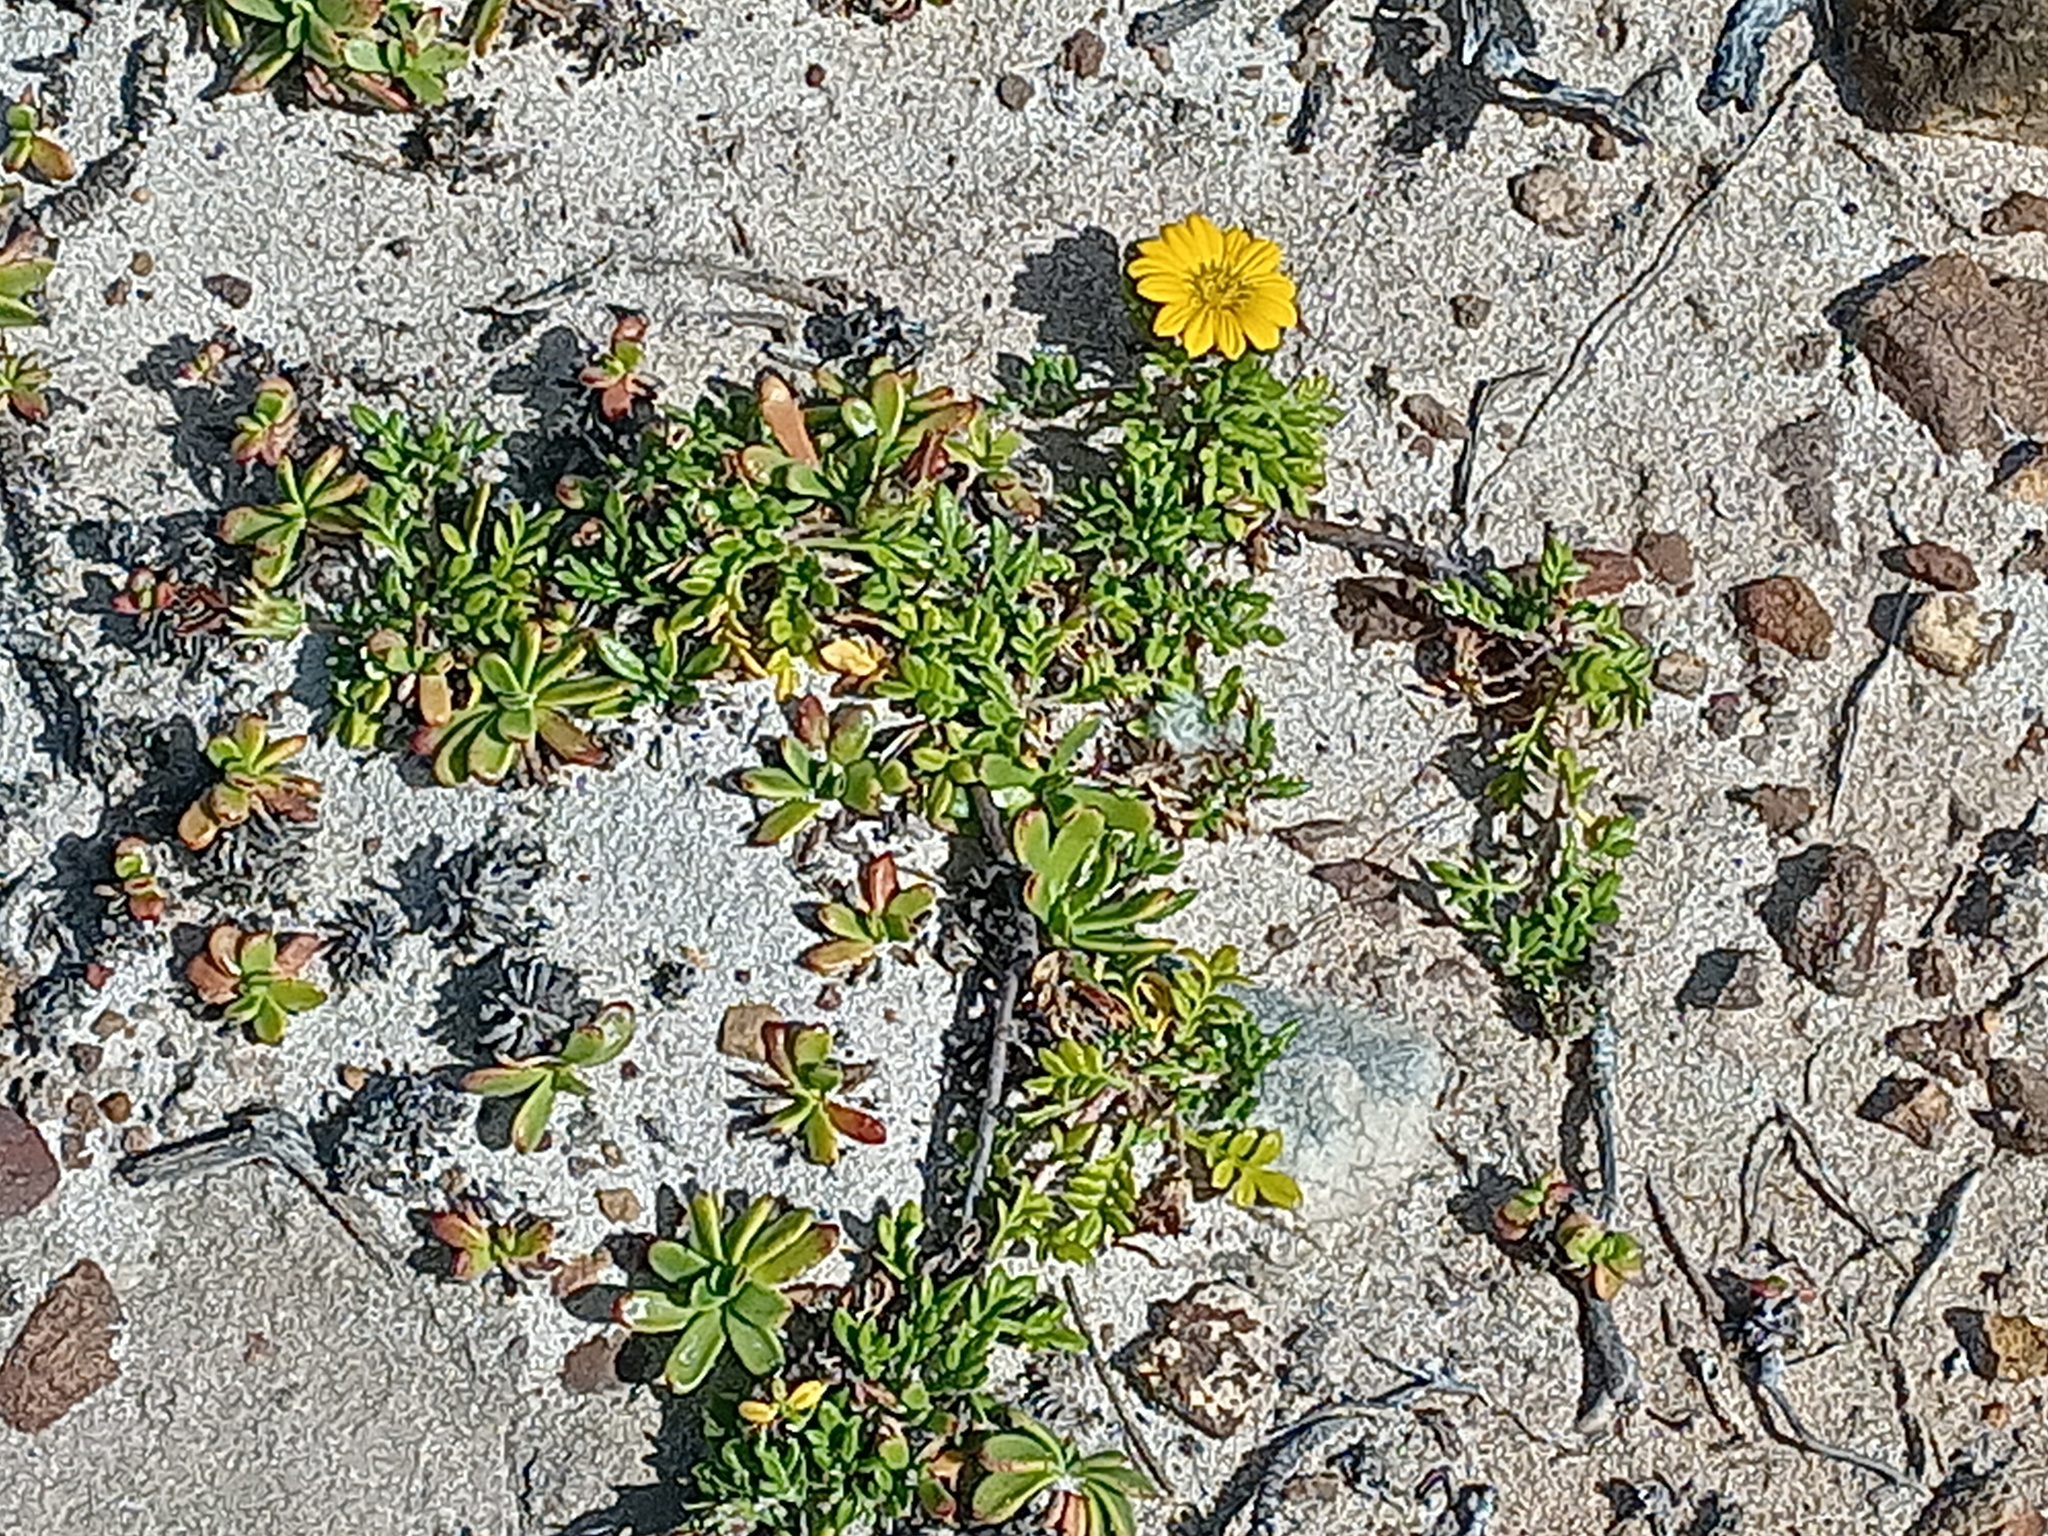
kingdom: Plantae
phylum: Tracheophyta
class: Magnoliopsida
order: Asterales
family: Asteraceae
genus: Gazania
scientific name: Gazania maritima
